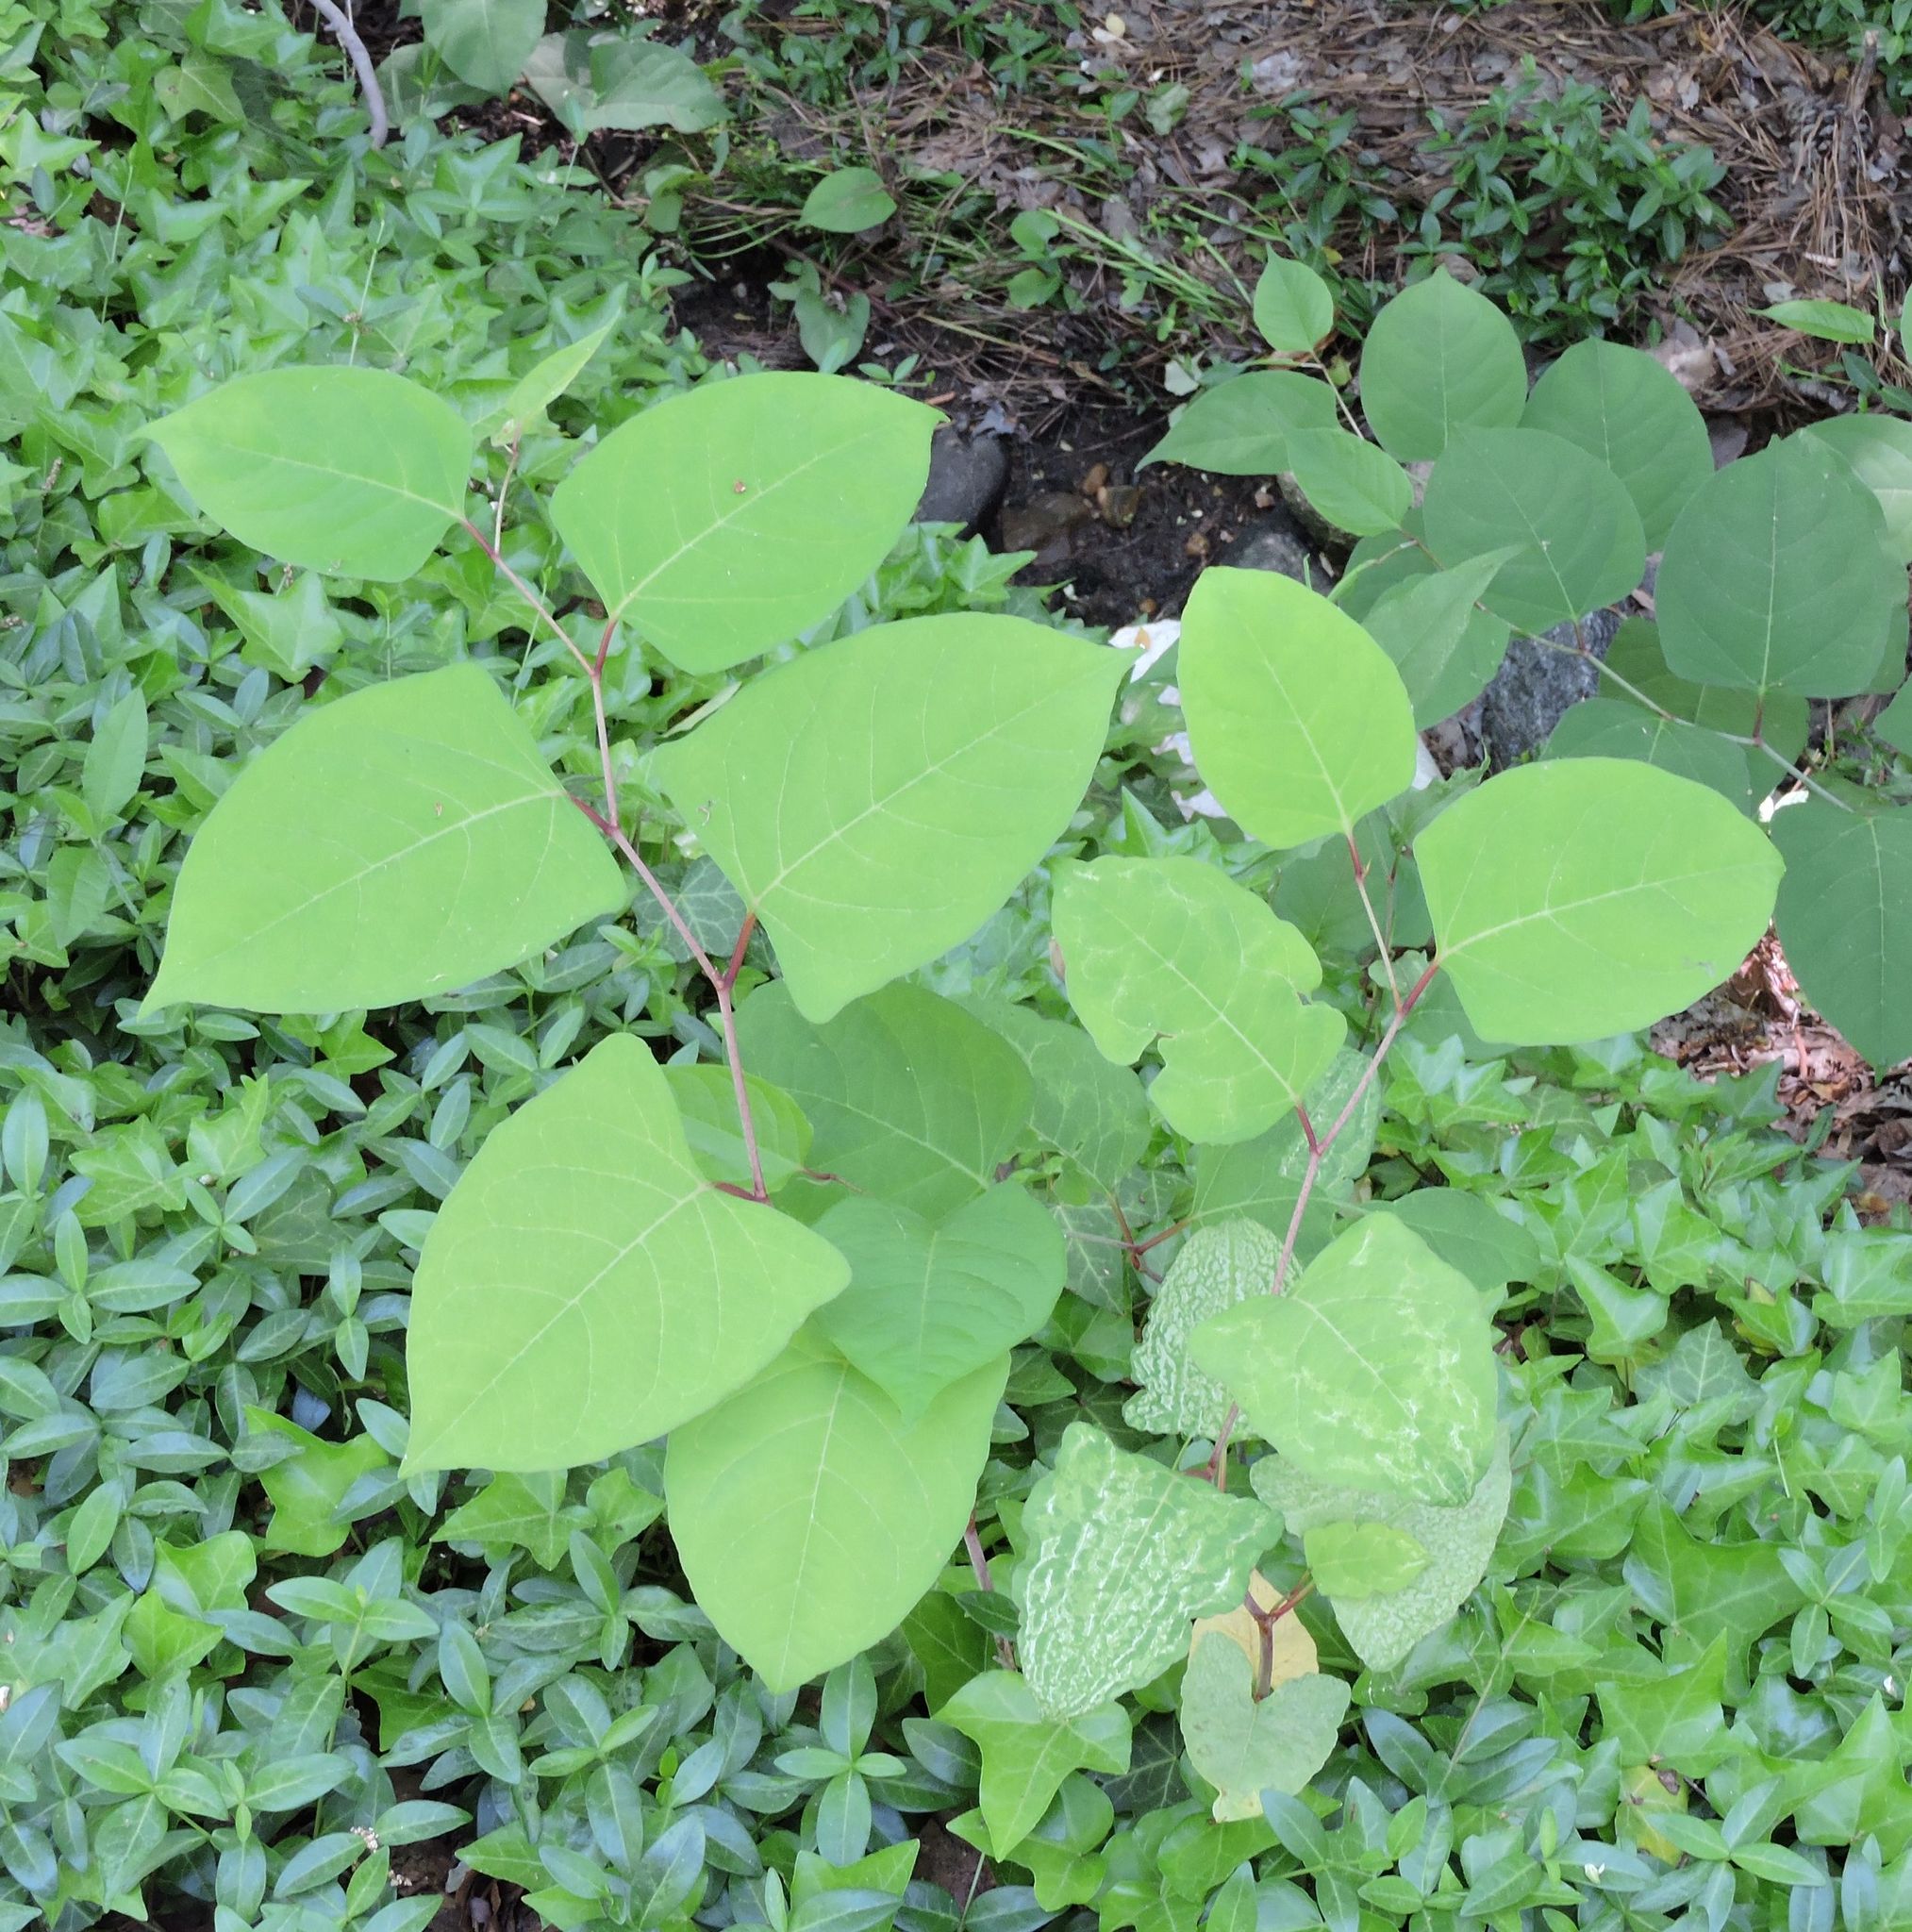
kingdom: Plantae
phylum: Tracheophyta
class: Magnoliopsida
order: Caryophyllales
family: Polygonaceae
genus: Reynoutria
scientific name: Reynoutria japonica
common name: Japanese knotweed
